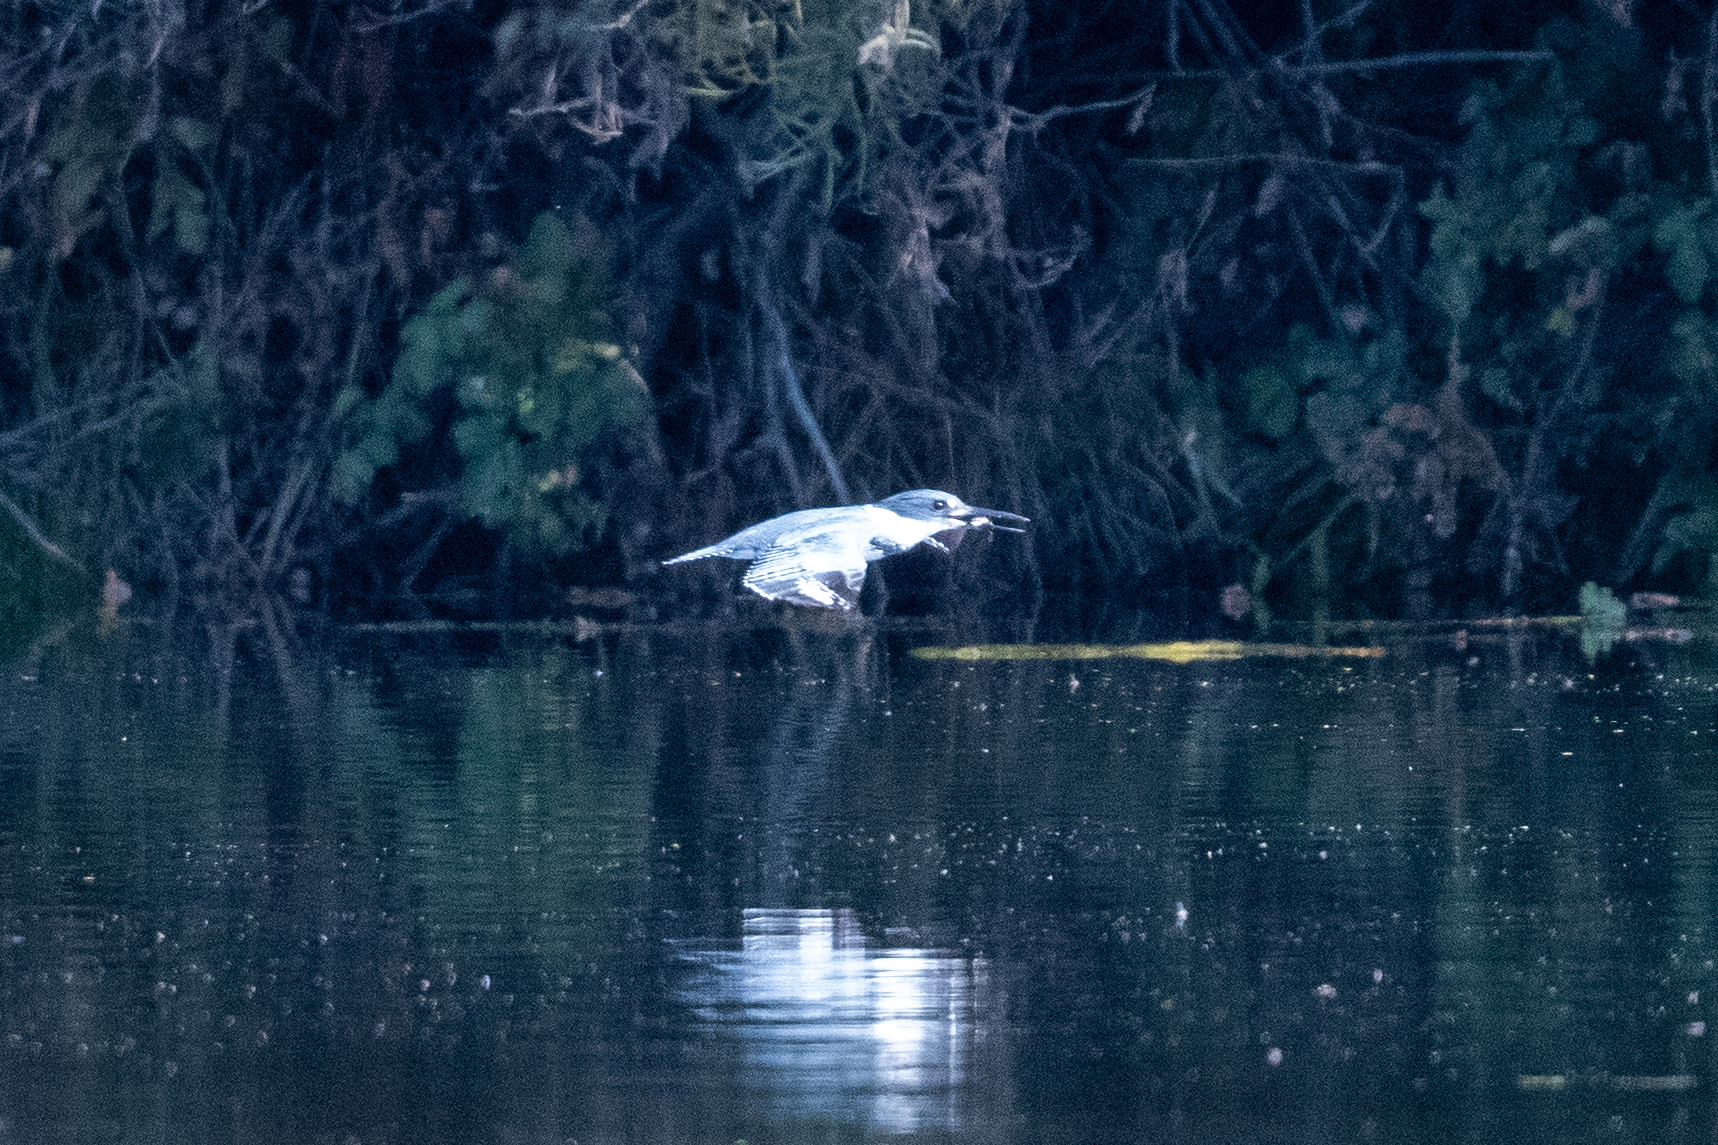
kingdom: Animalia
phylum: Chordata
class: Aves
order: Coraciiformes
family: Alcedinidae
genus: Megaceryle
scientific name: Megaceryle alcyon
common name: Belted kingfisher
